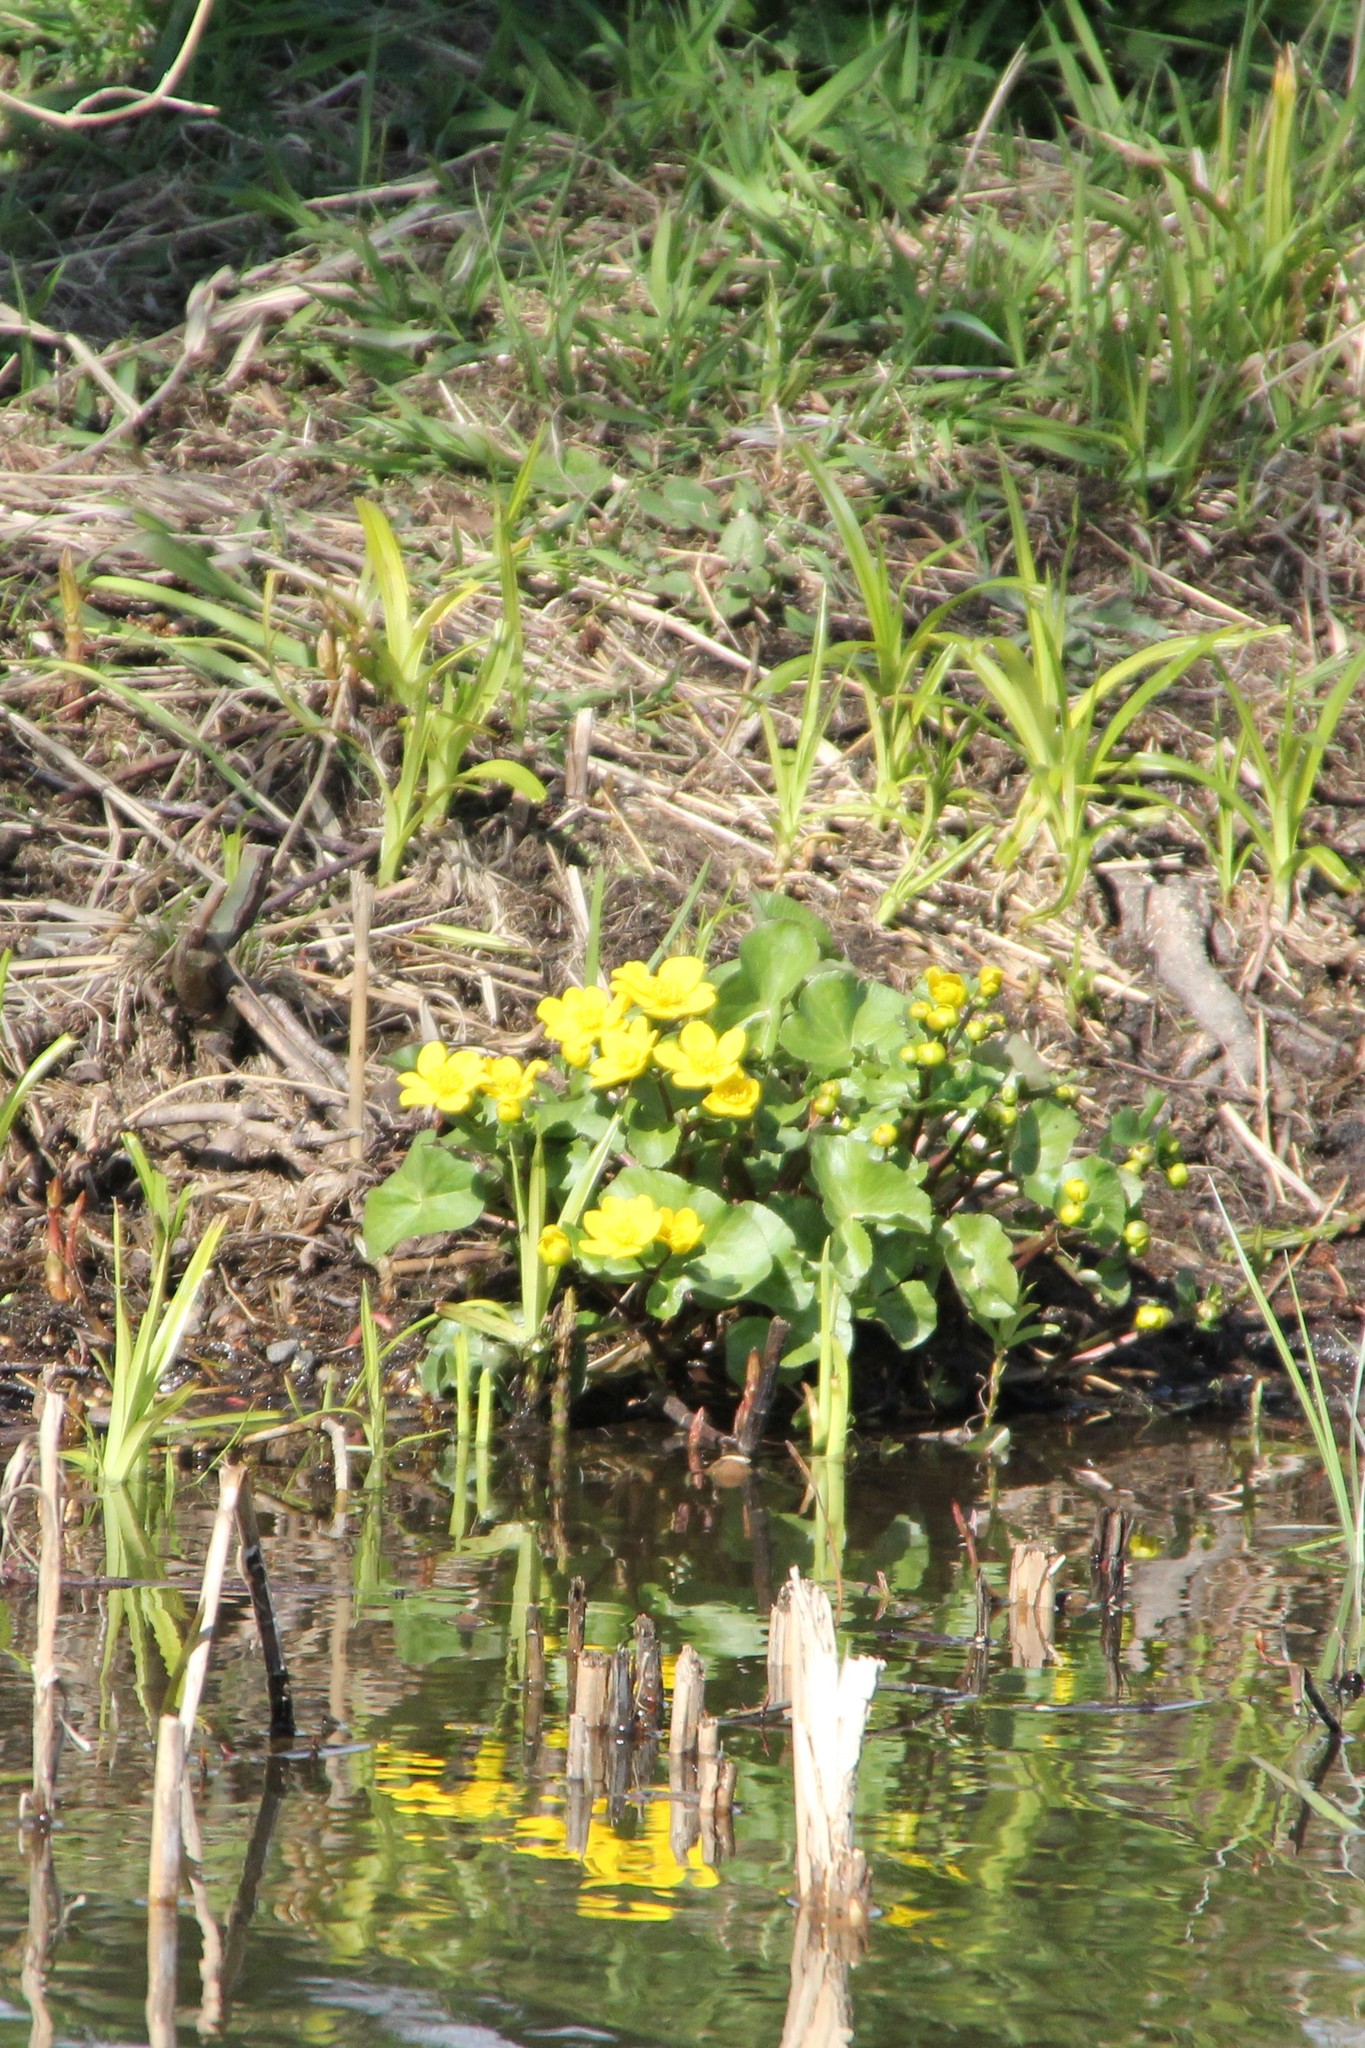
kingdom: Plantae
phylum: Tracheophyta
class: Magnoliopsida
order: Ranunculales
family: Ranunculaceae
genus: Caltha
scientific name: Caltha palustris
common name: Marsh marigold
